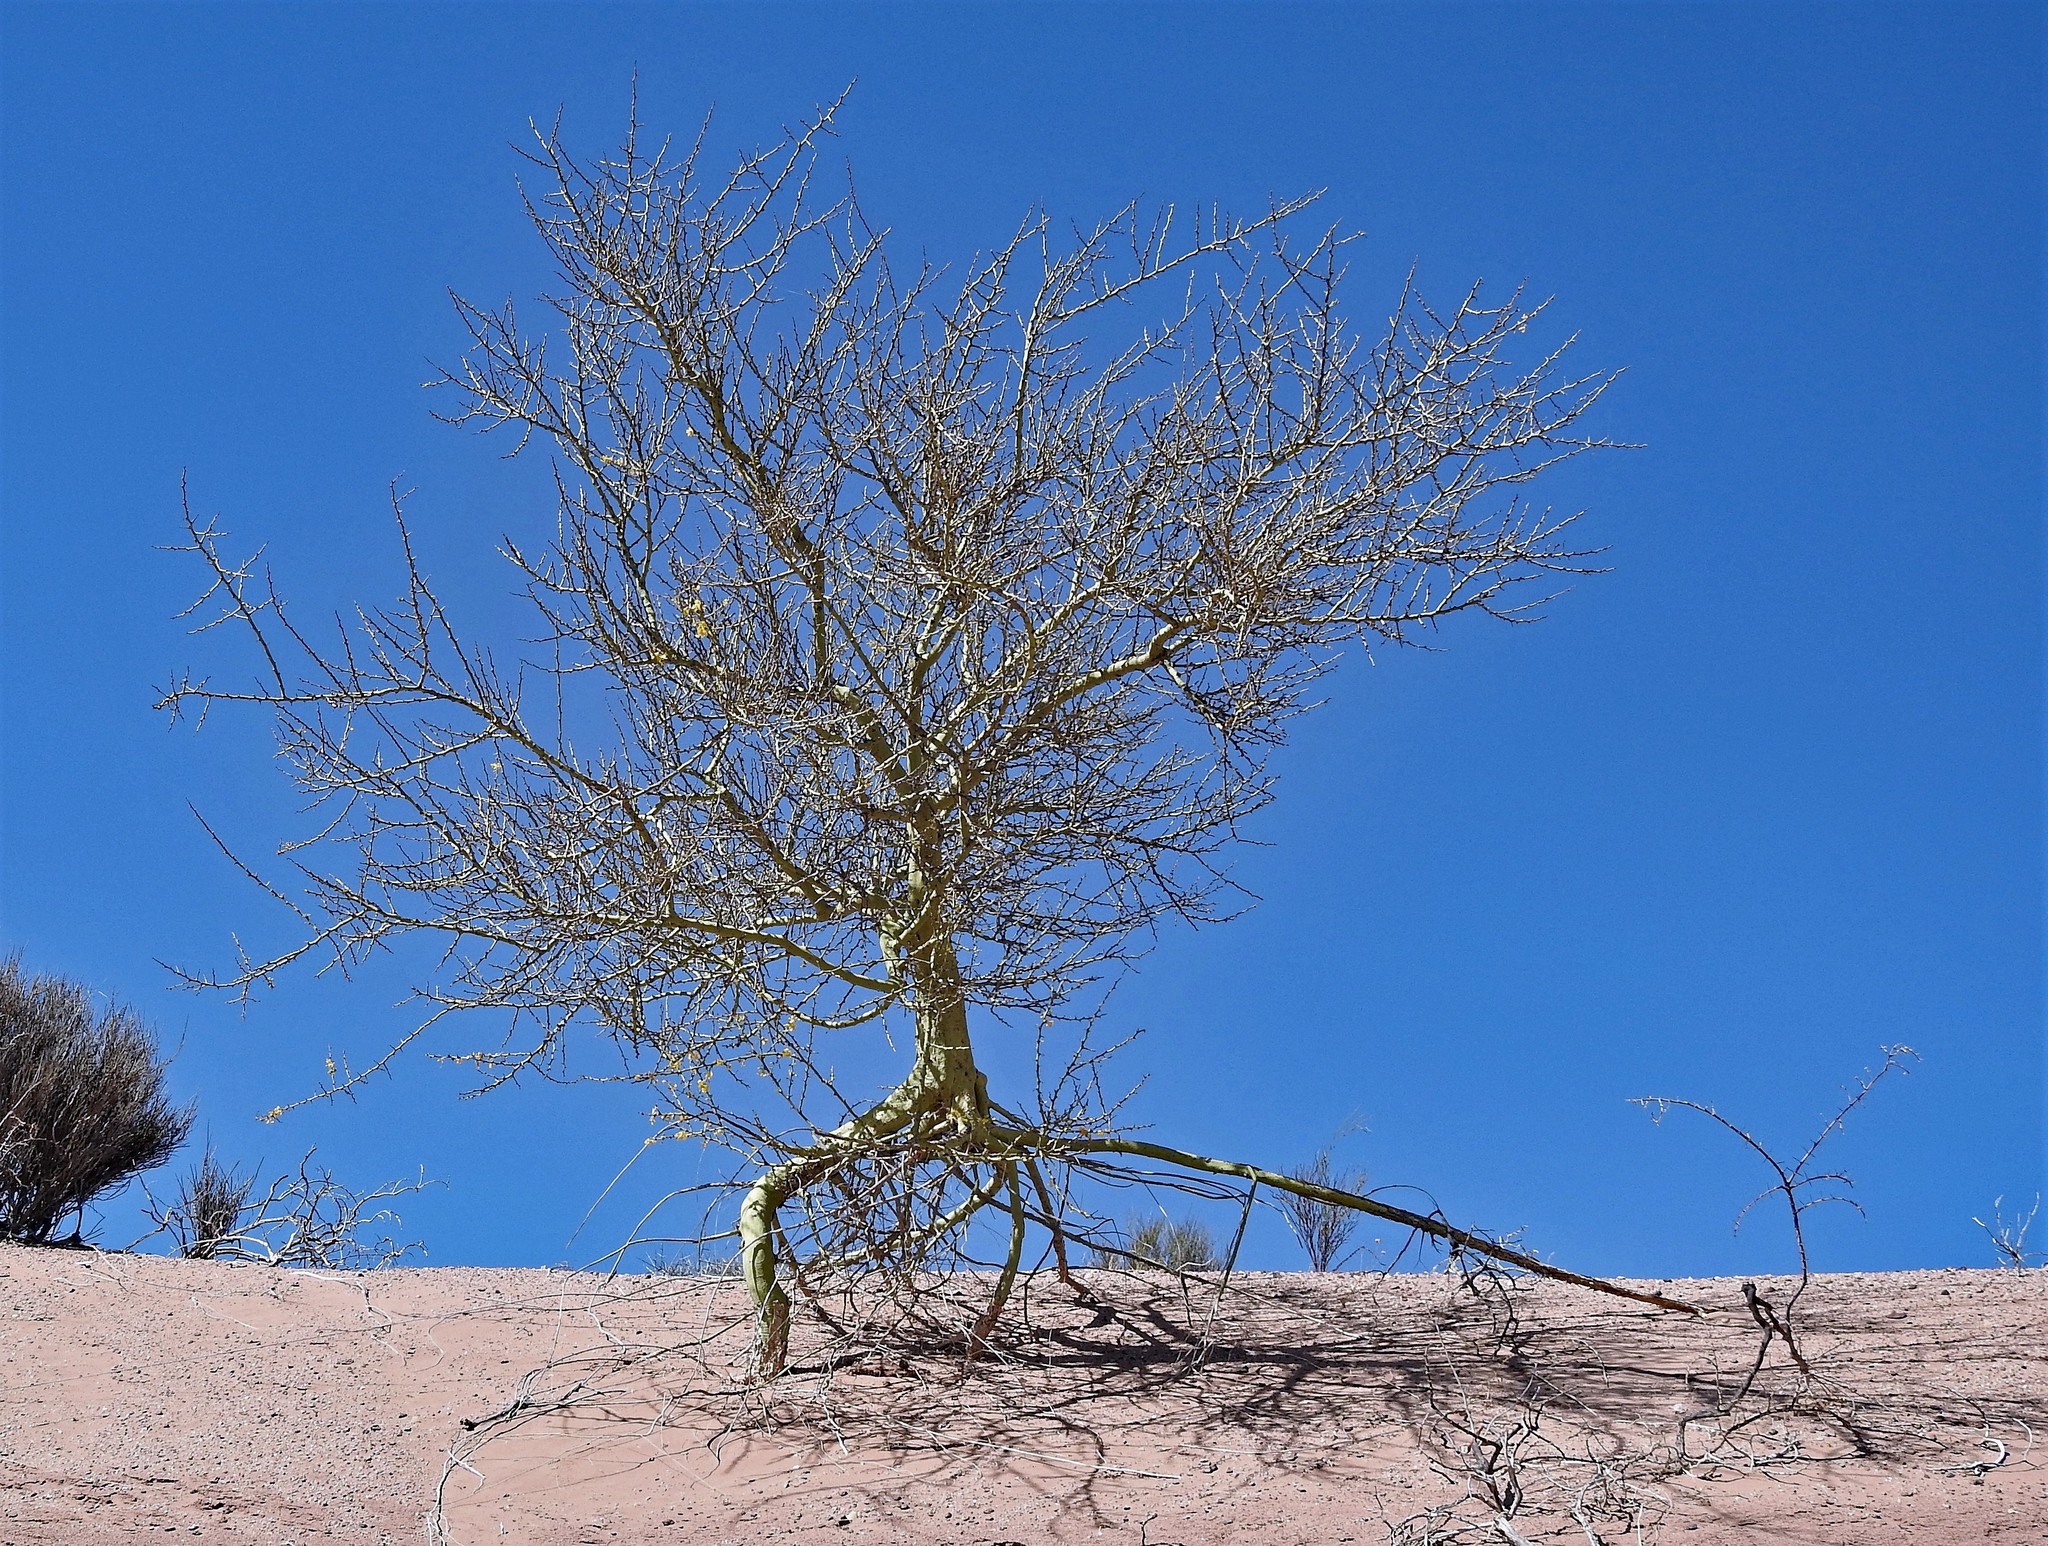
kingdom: Plantae
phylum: Tracheophyta
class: Magnoliopsida
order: Fabales
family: Fabaceae
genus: Parkinsonia
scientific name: Parkinsonia praecox
